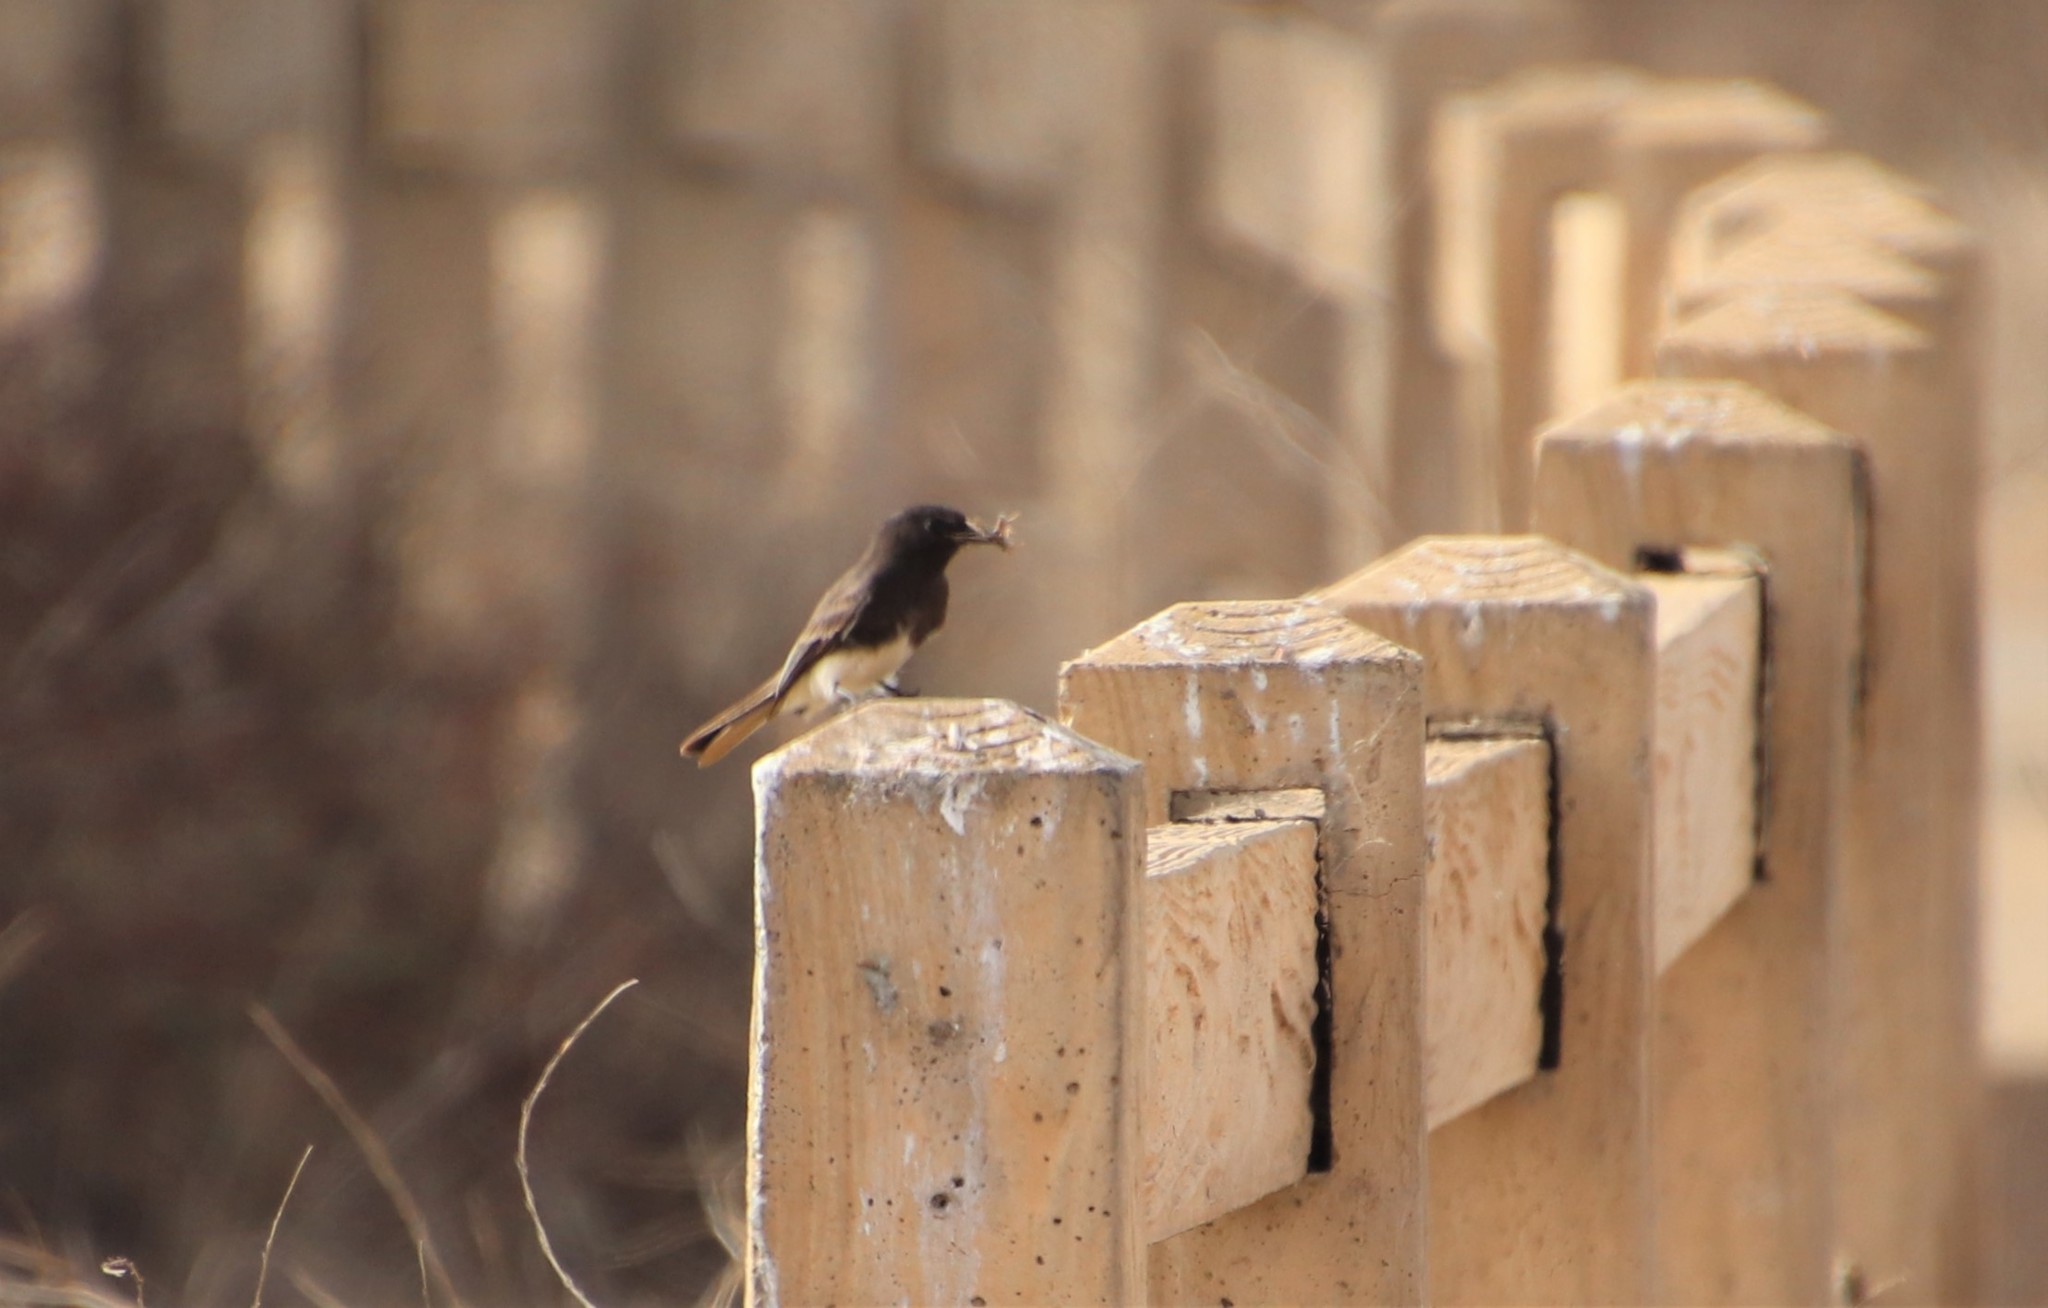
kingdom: Animalia
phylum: Chordata
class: Aves
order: Passeriformes
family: Tyrannidae
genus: Sayornis
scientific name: Sayornis nigricans
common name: Black phoebe
